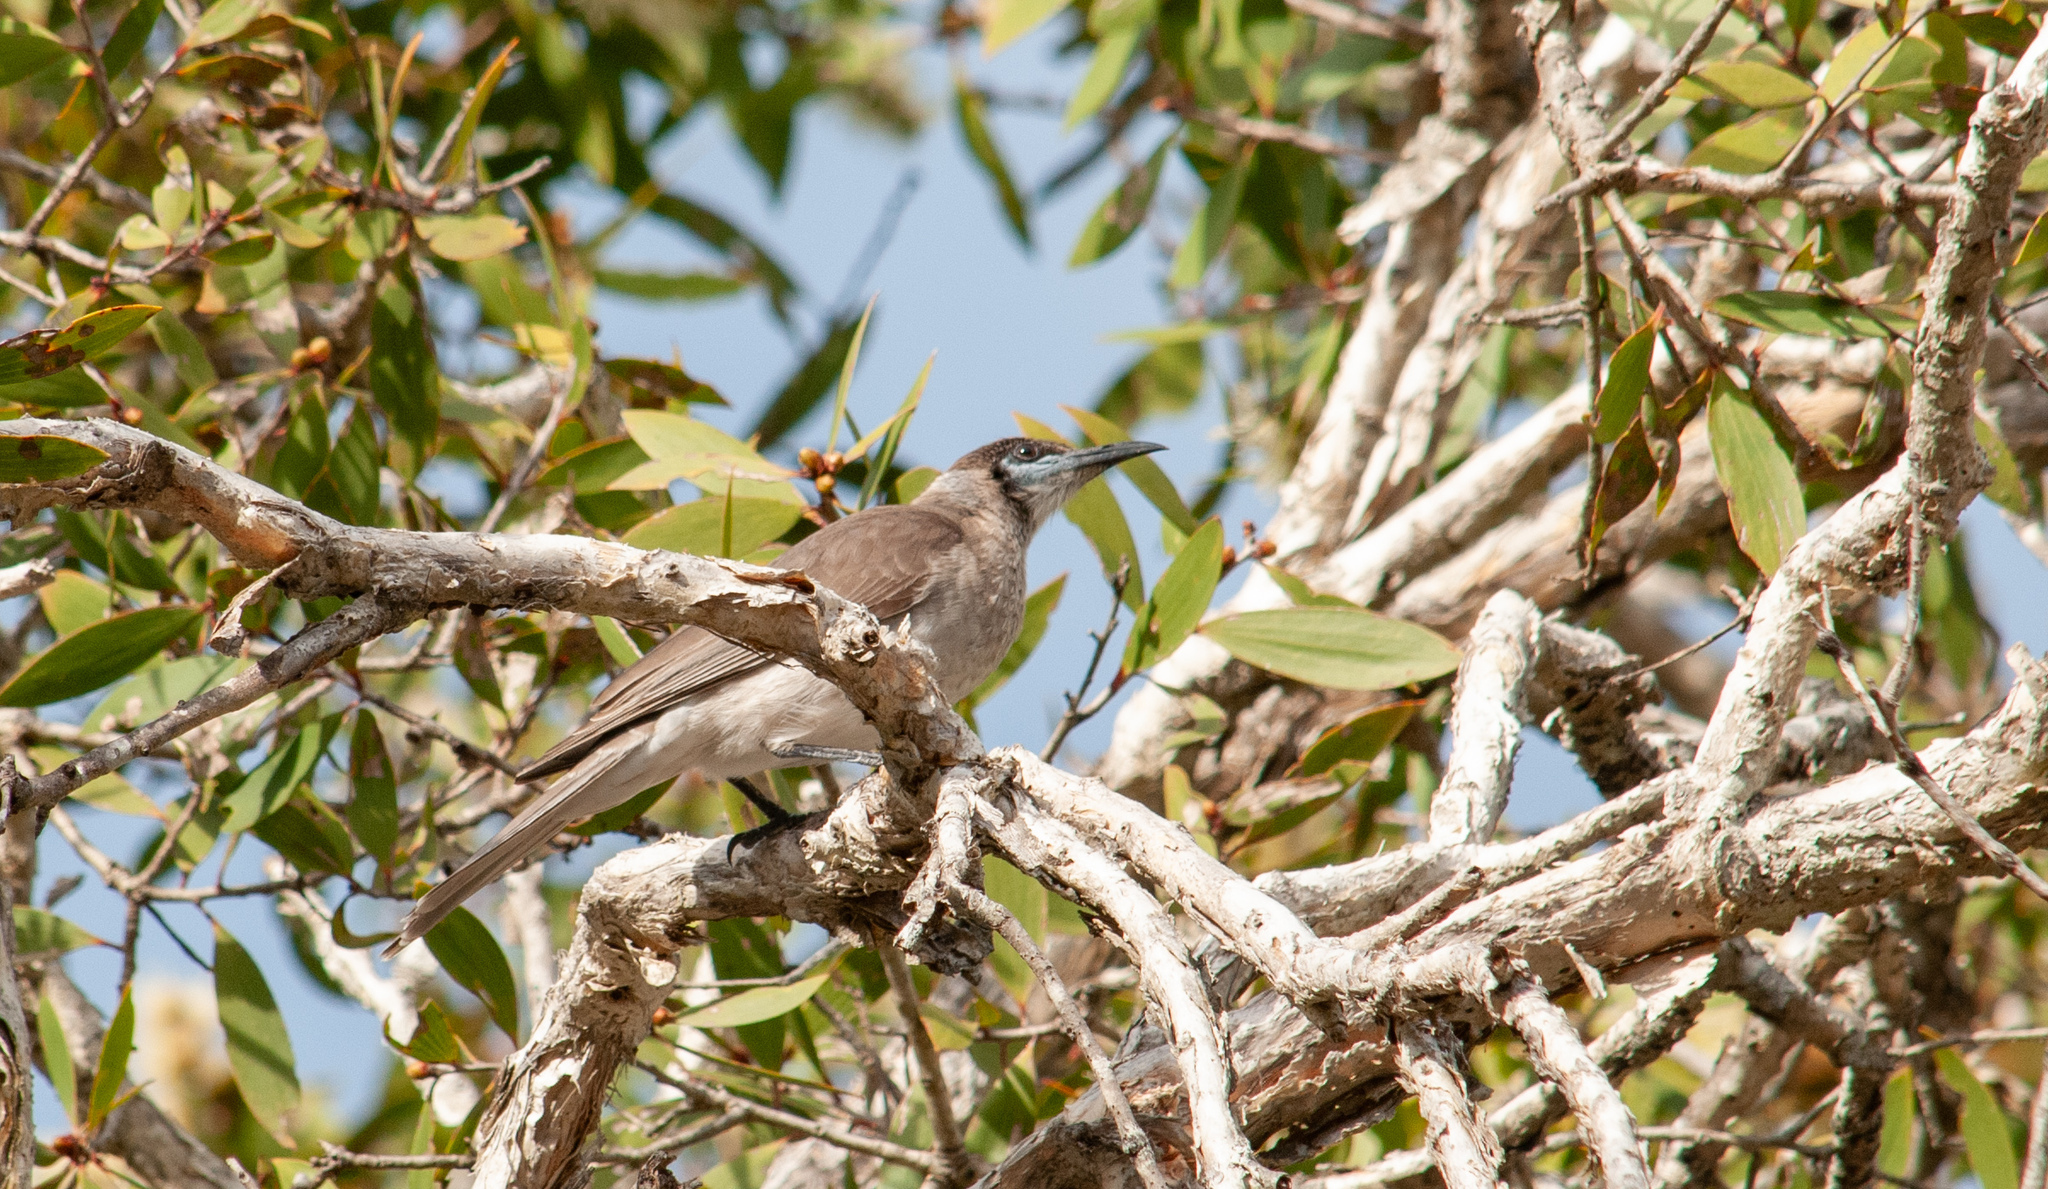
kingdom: Animalia
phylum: Chordata
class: Aves
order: Passeriformes
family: Meliphagidae
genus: Philemon
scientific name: Philemon citreogularis
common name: Little friarbird
